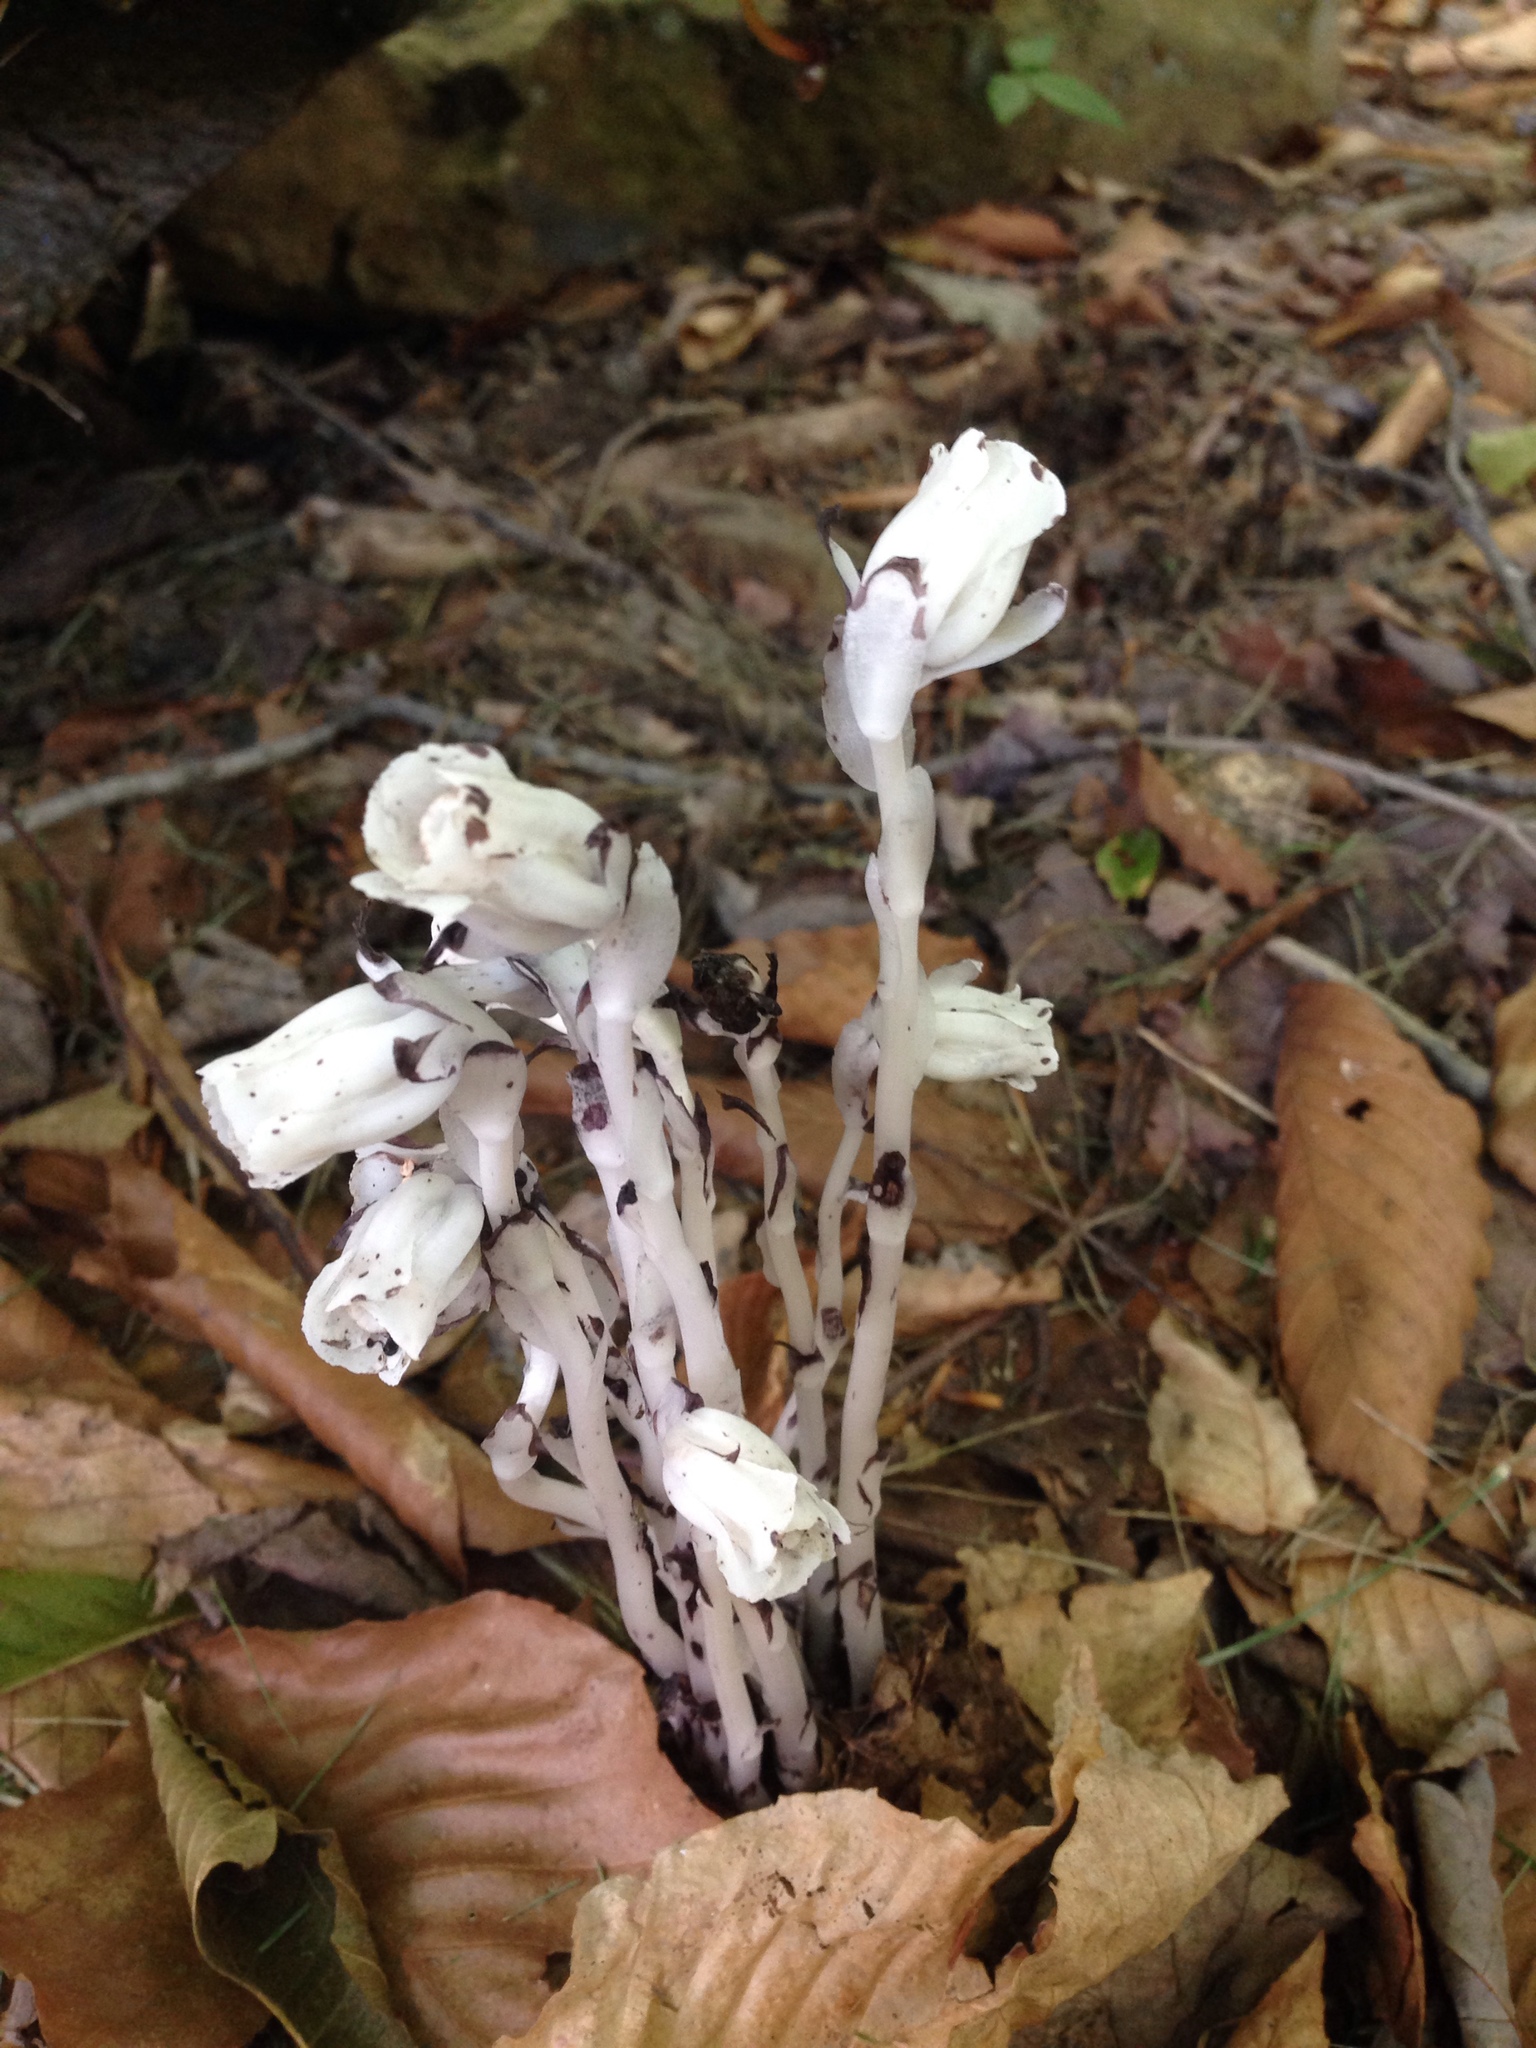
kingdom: Plantae
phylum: Tracheophyta
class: Magnoliopsida
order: Ericales
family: Ericaceae
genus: Monotropa
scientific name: Monotropa uniflora
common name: Convulsion root
